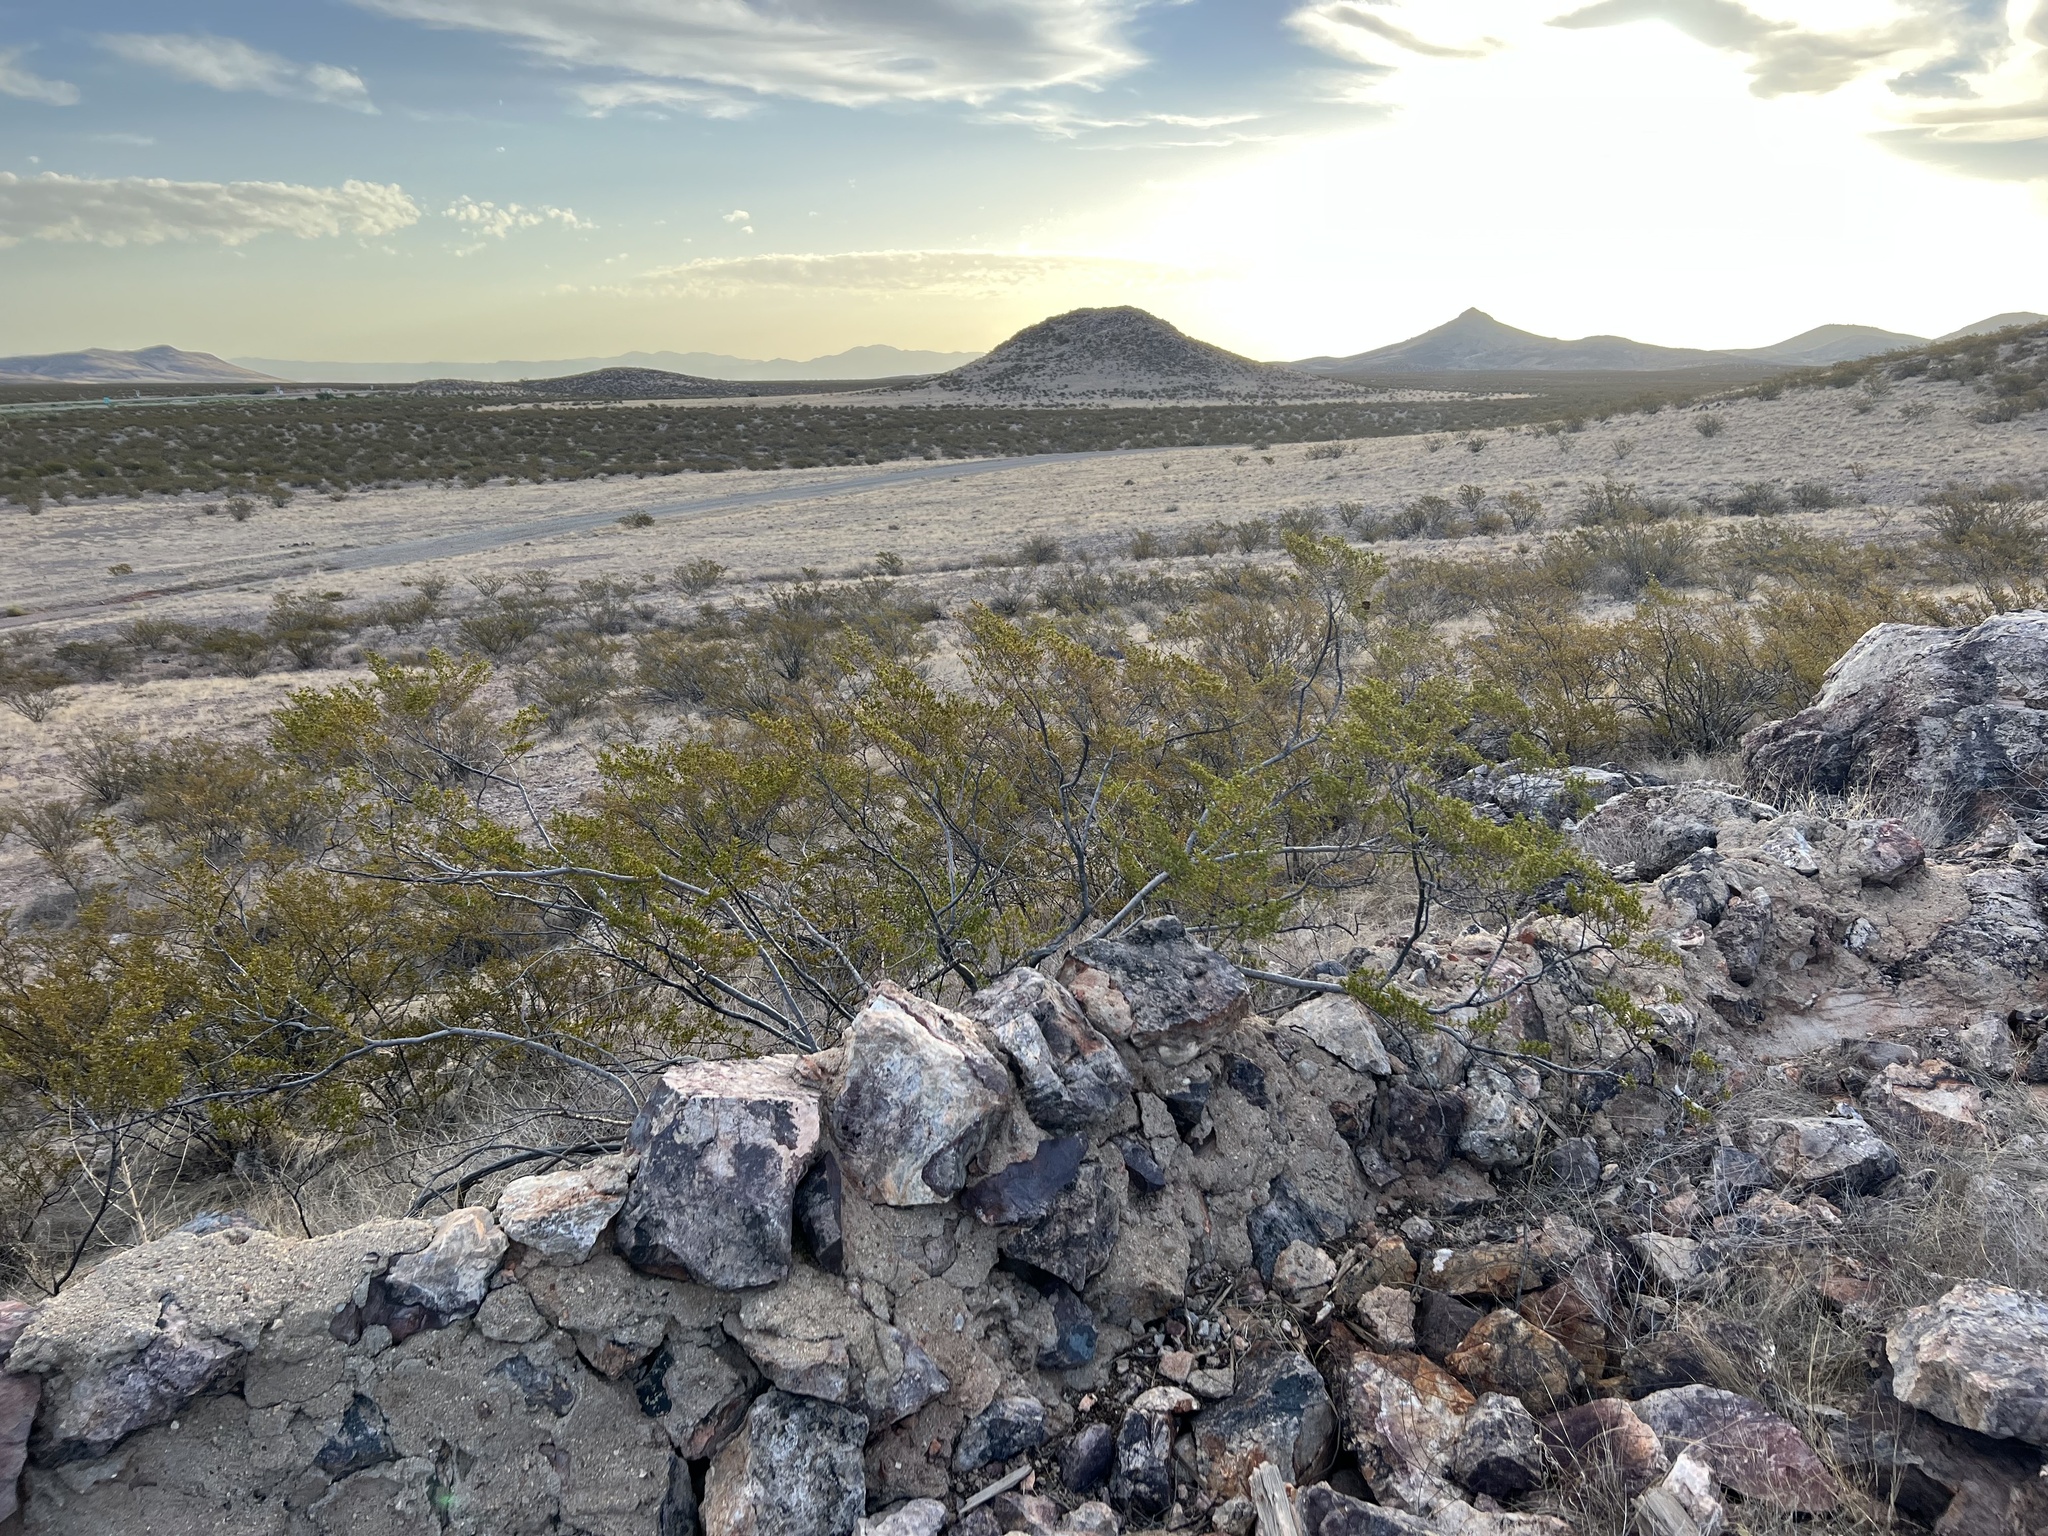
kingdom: Plantae
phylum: Tracheophyta
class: Magnoliopsida
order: Zygophyllales
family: Zygophyllaceae
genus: Larrea
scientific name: Larrea tridentata
